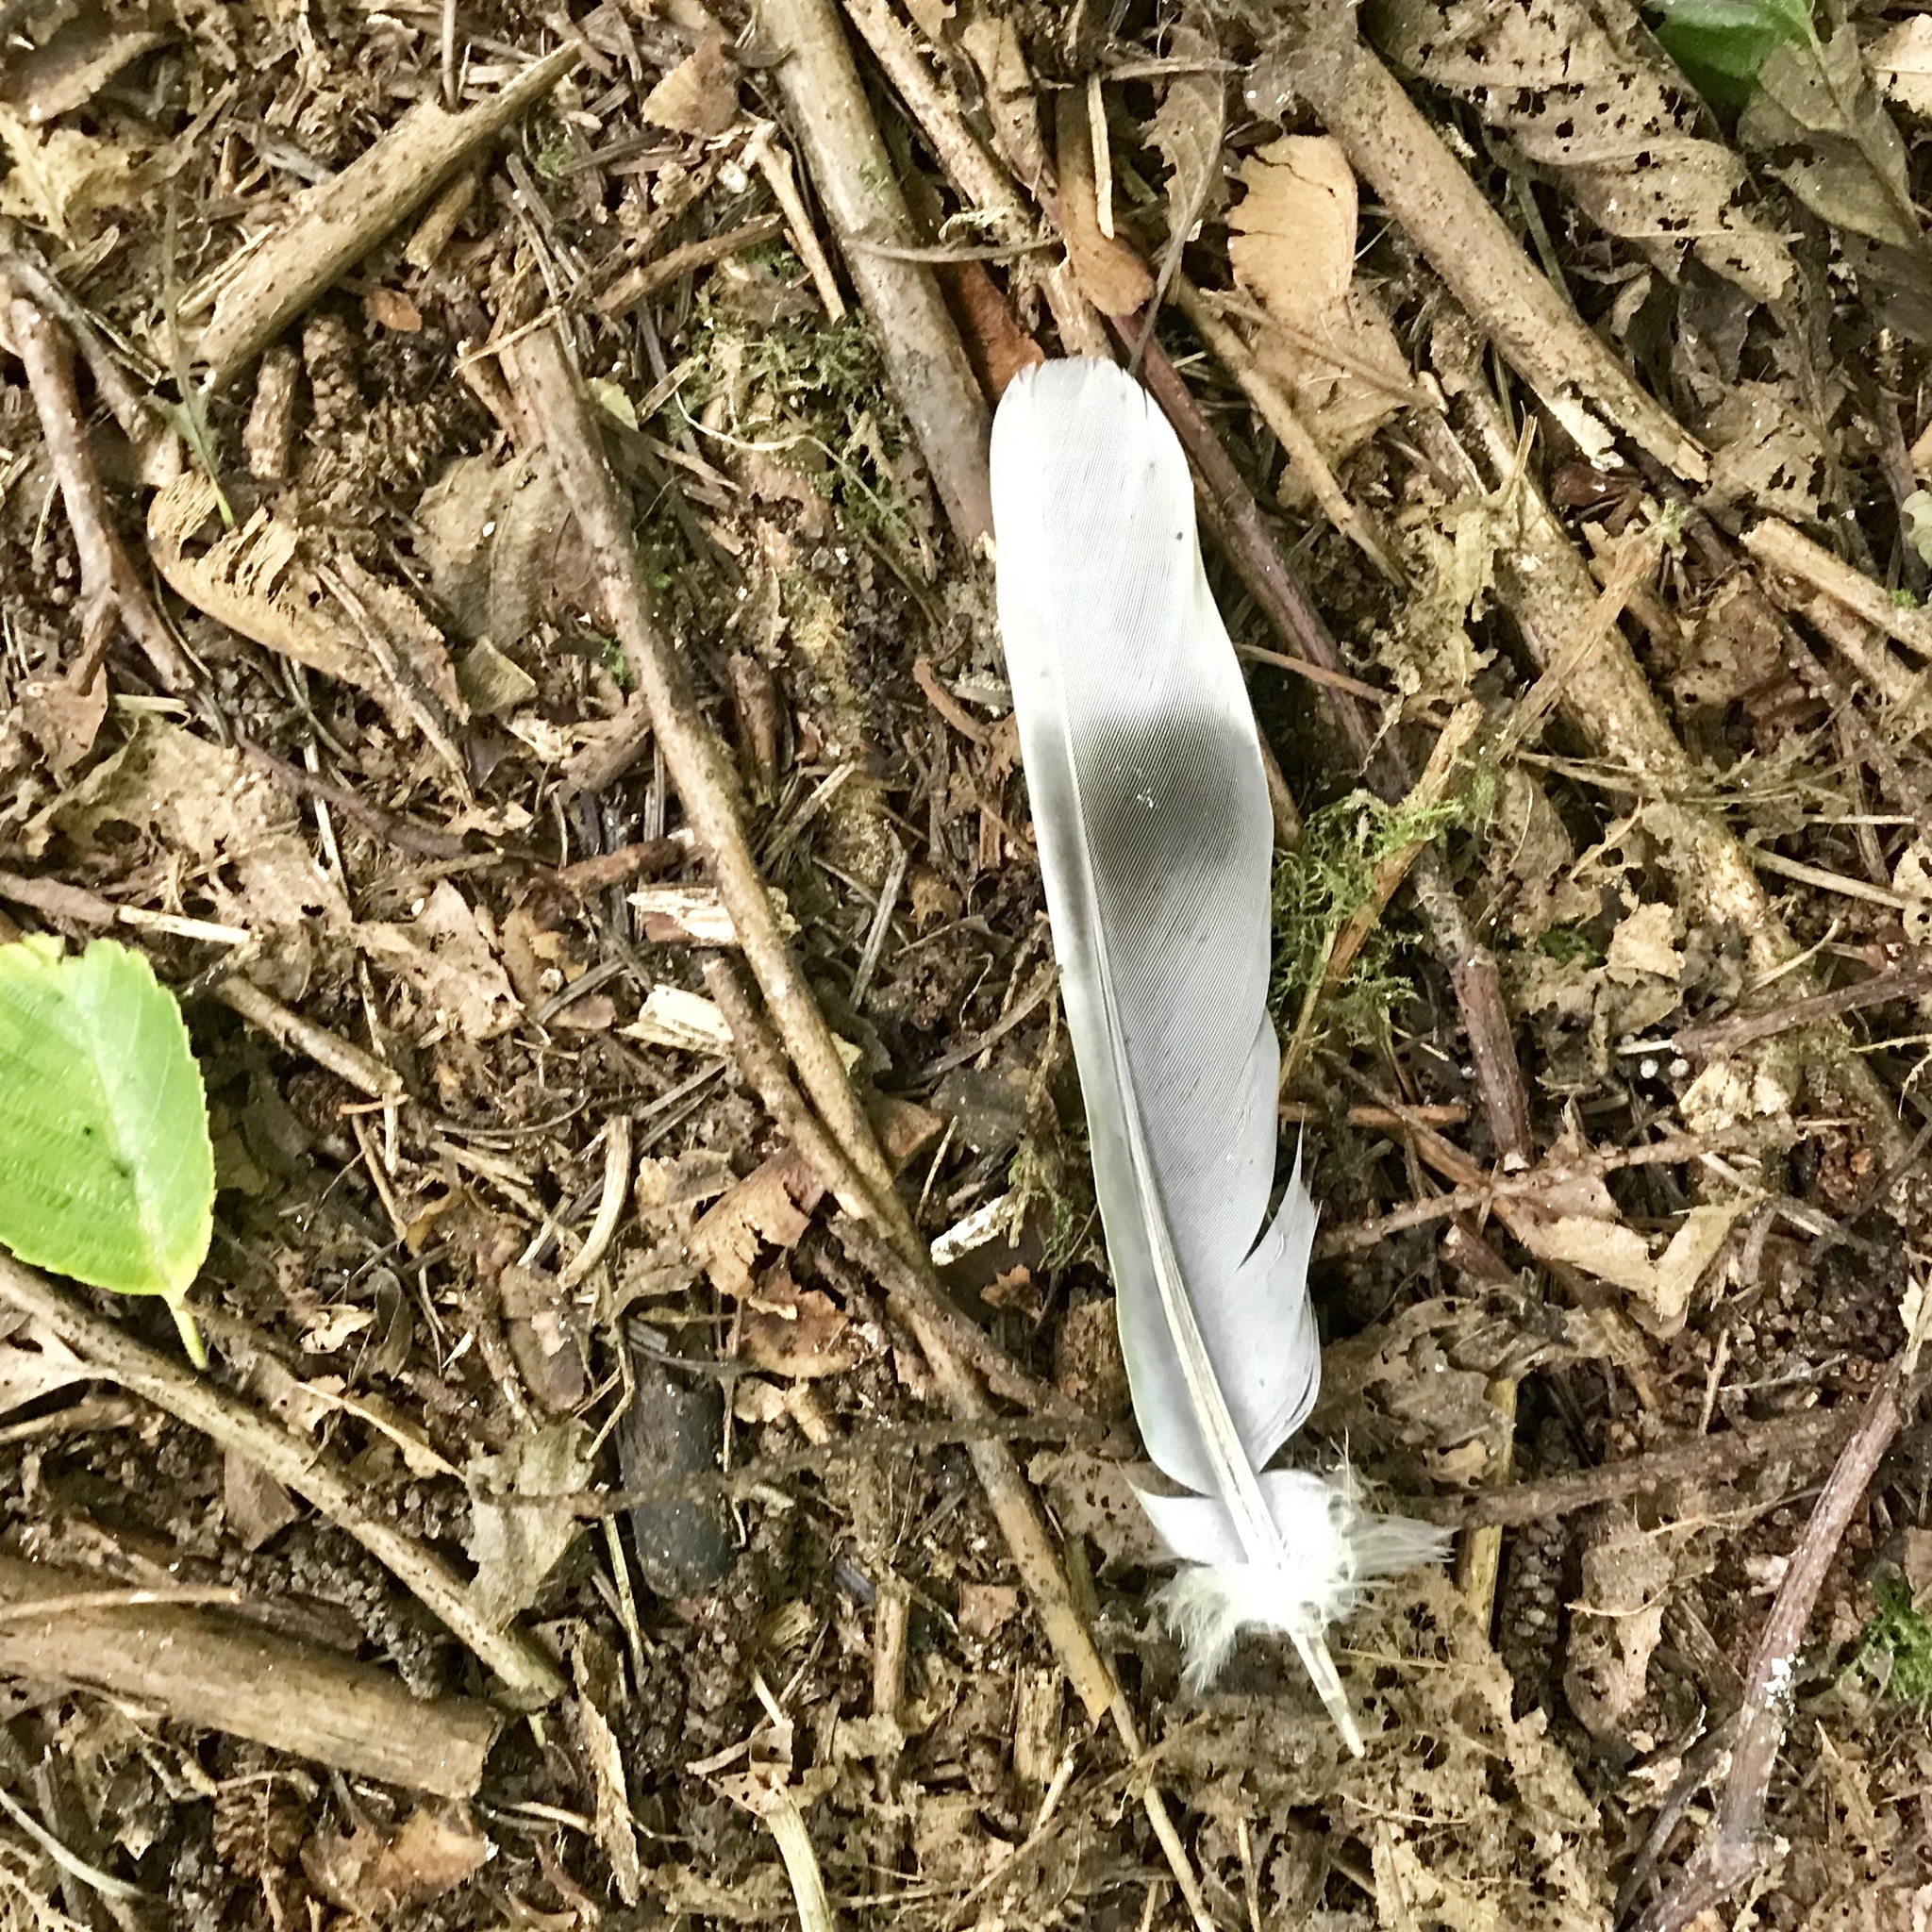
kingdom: Animalia
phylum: Chordata
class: Aves
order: Columbiformes
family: Columbidae
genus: Patagioenas
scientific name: Patagioenas fasciata
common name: Band-tailed pigeon
